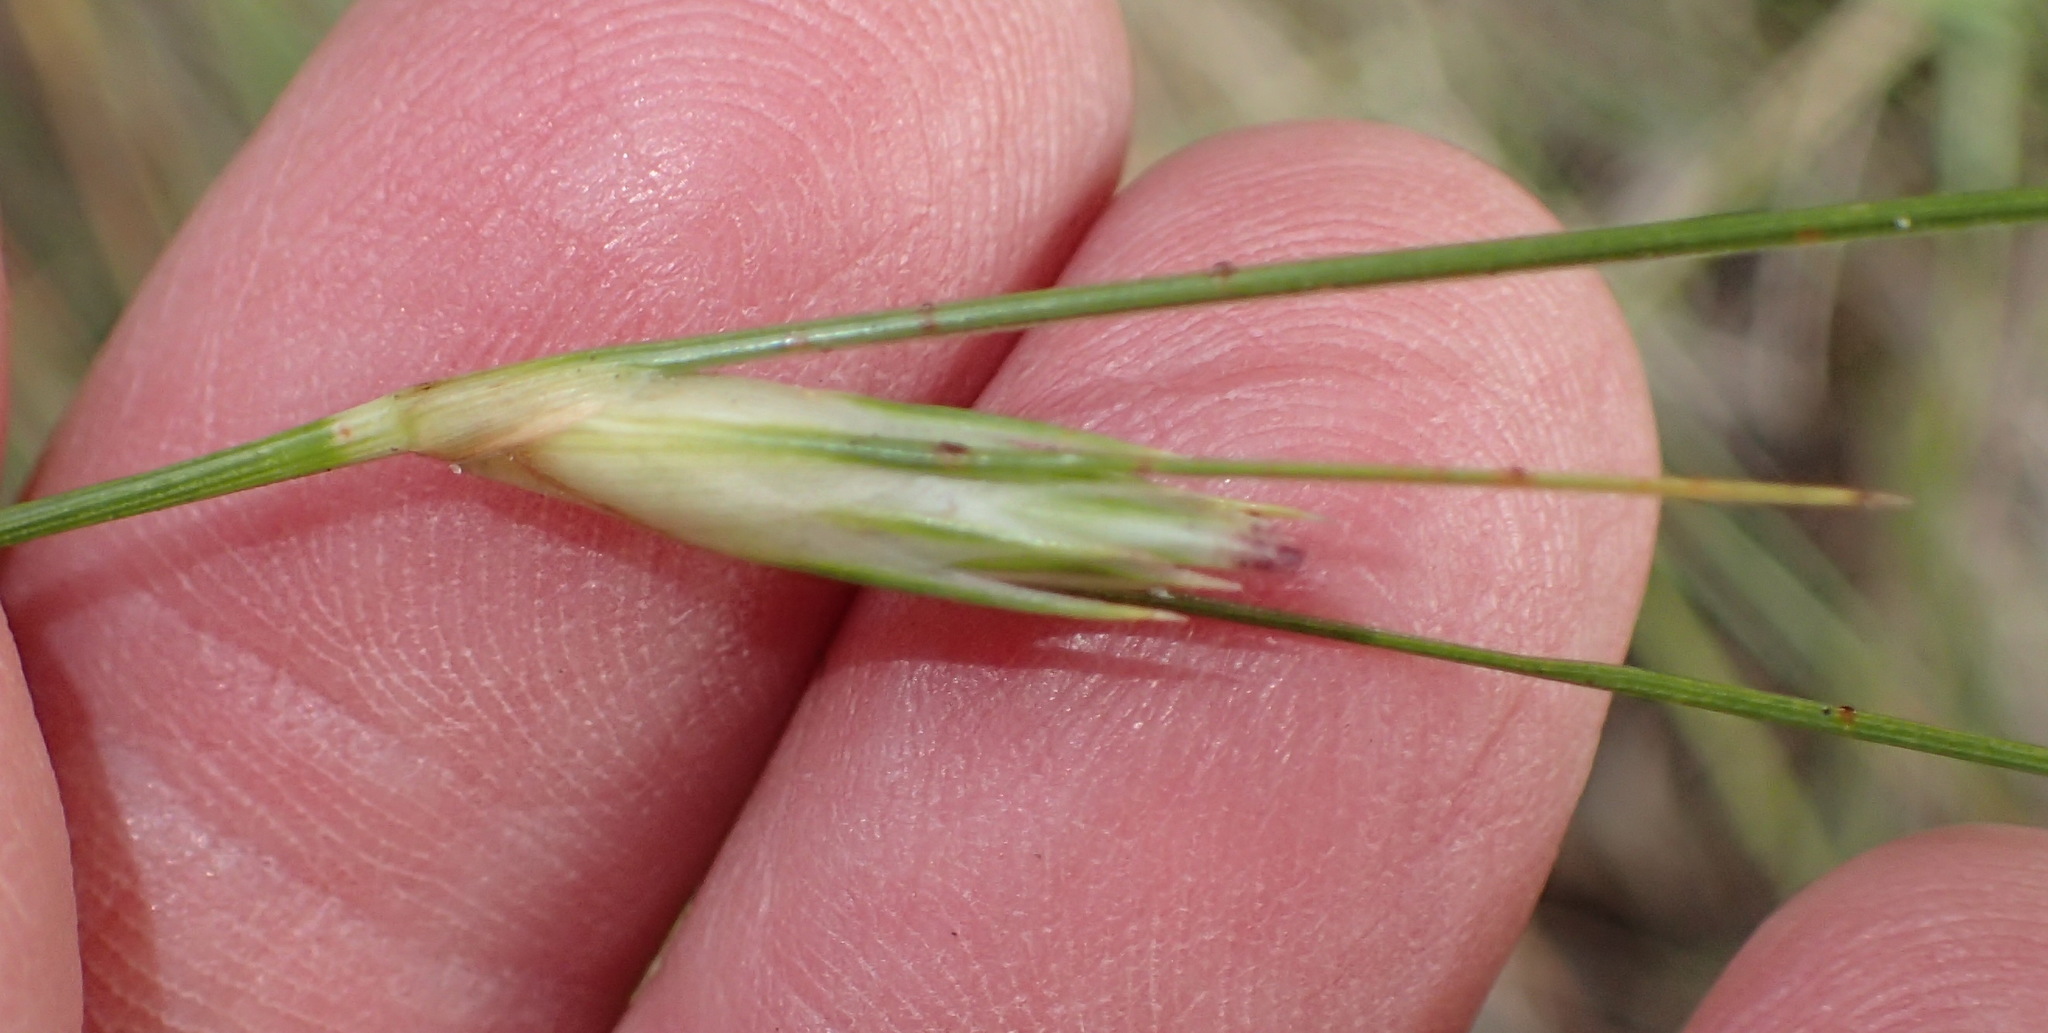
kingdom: Plantae
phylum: Tracheophyta
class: Liliopsida
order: Poales
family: Cyperaceae
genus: Ficinia
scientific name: Ficinia nigrescens
